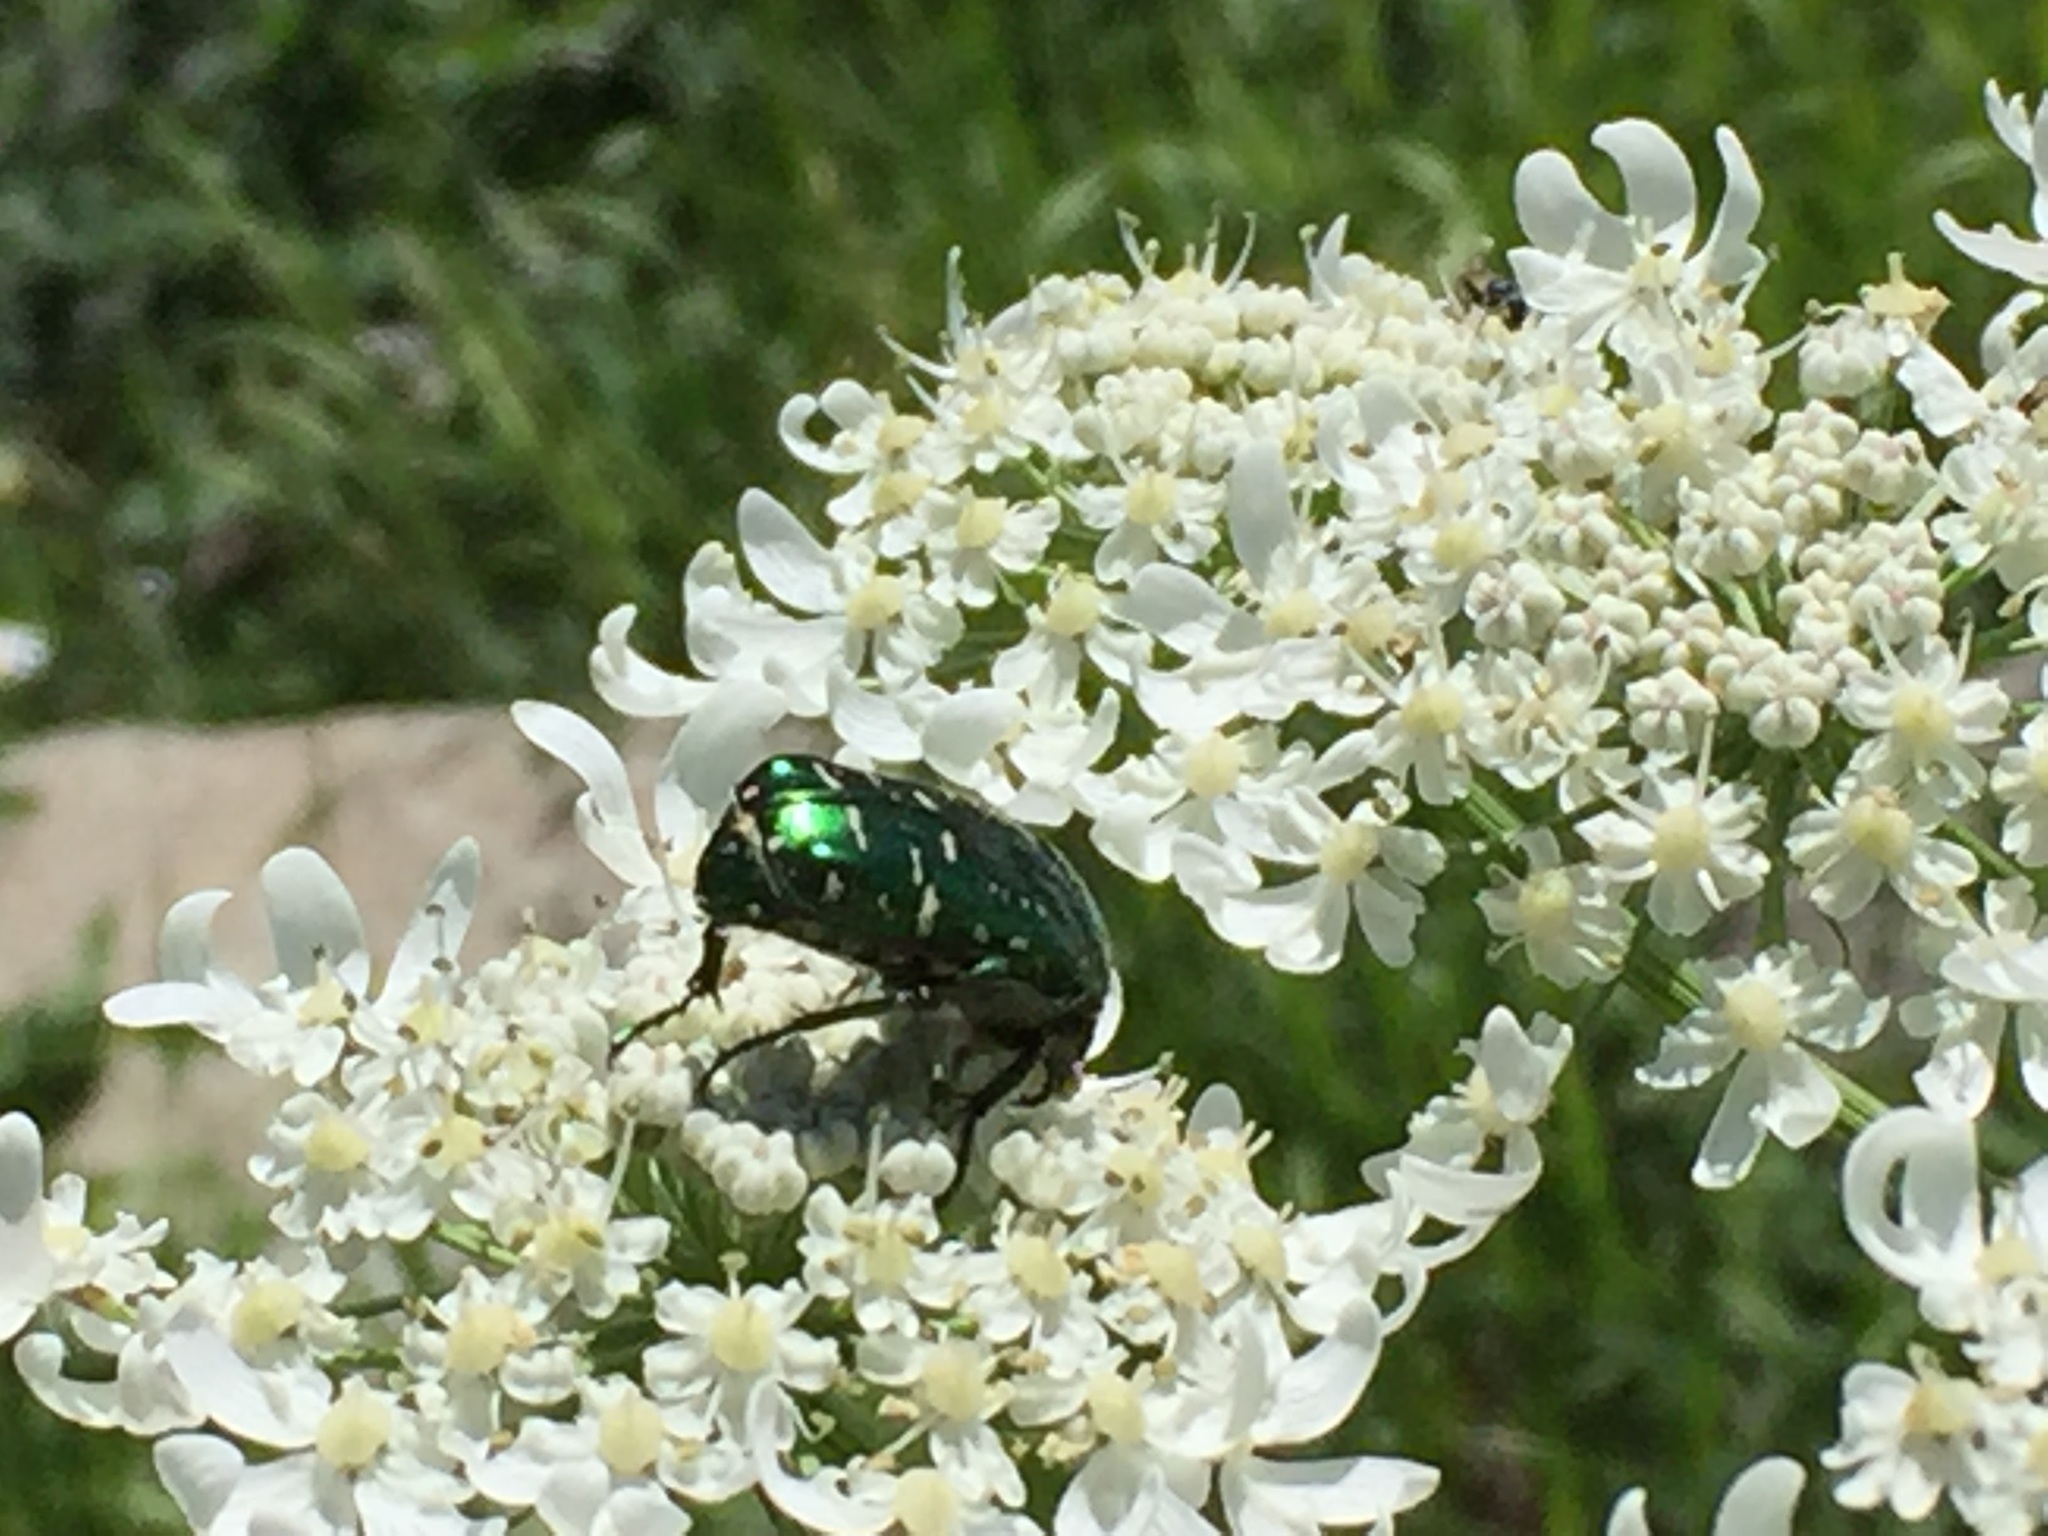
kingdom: Animalia
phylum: Arthropoda
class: Insecta
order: Coleoptera
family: Scarabaeidae
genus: Cetonia
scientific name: Cetonia aurata
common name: Rose chafer
